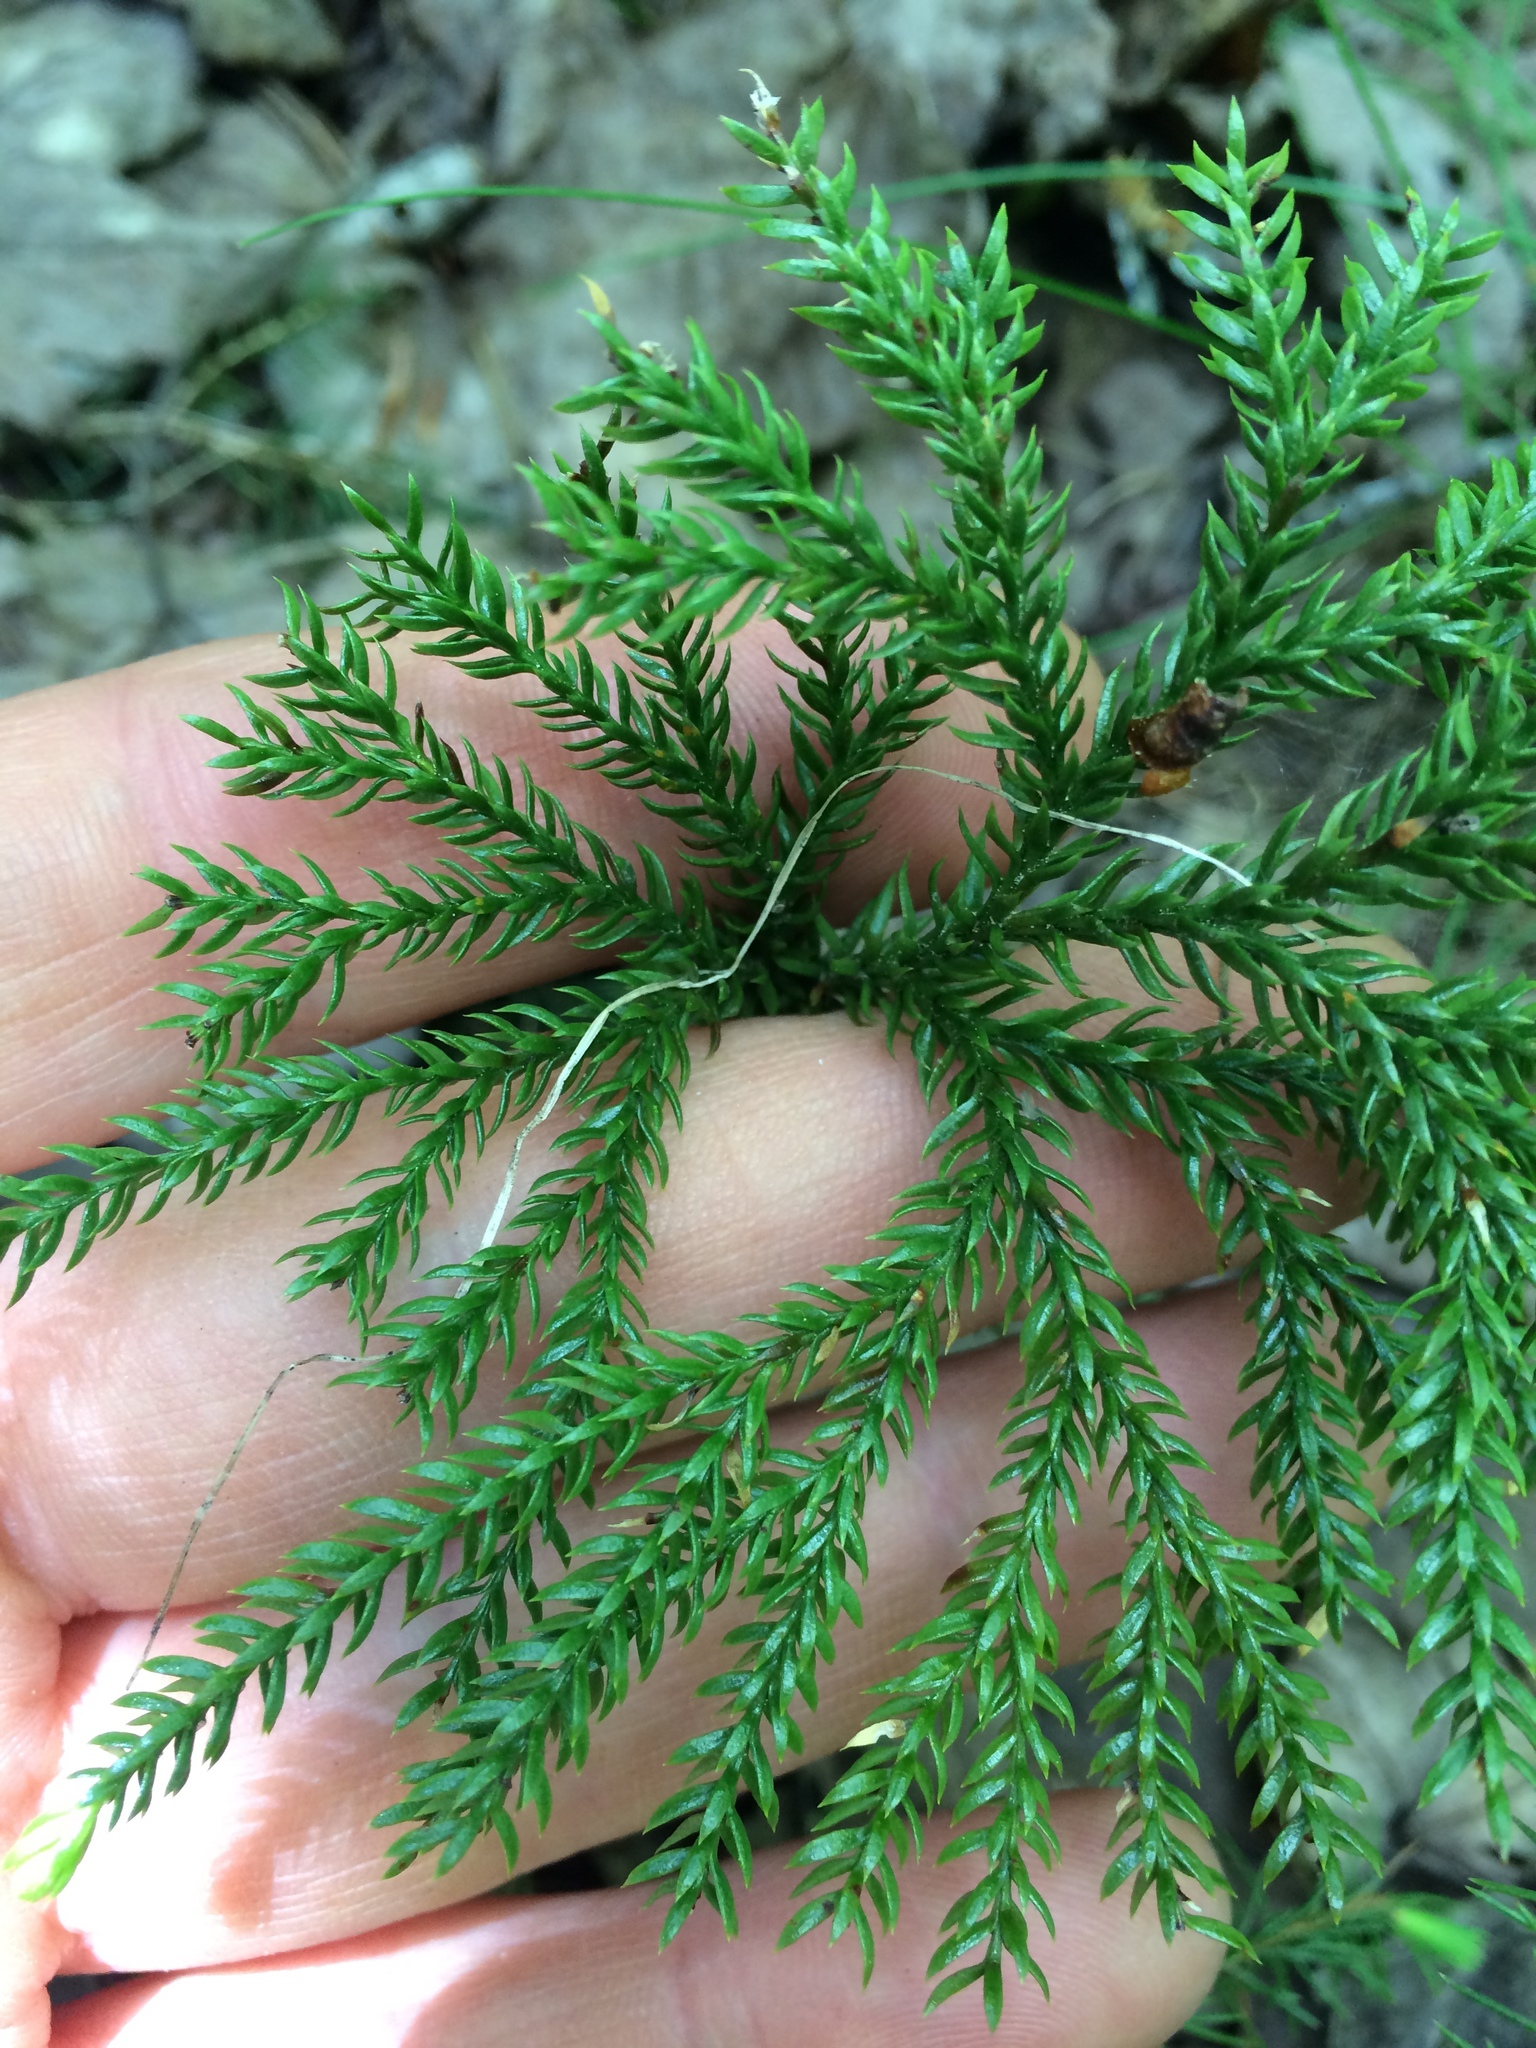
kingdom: Plantae
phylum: Tracheophyta
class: Lycopodiopsida
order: Lycopodiales
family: Lycopodiaceae
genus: Dendrolycopodium
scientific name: Dendrolycopodium dendroideum
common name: Northern tree-clubmoss
